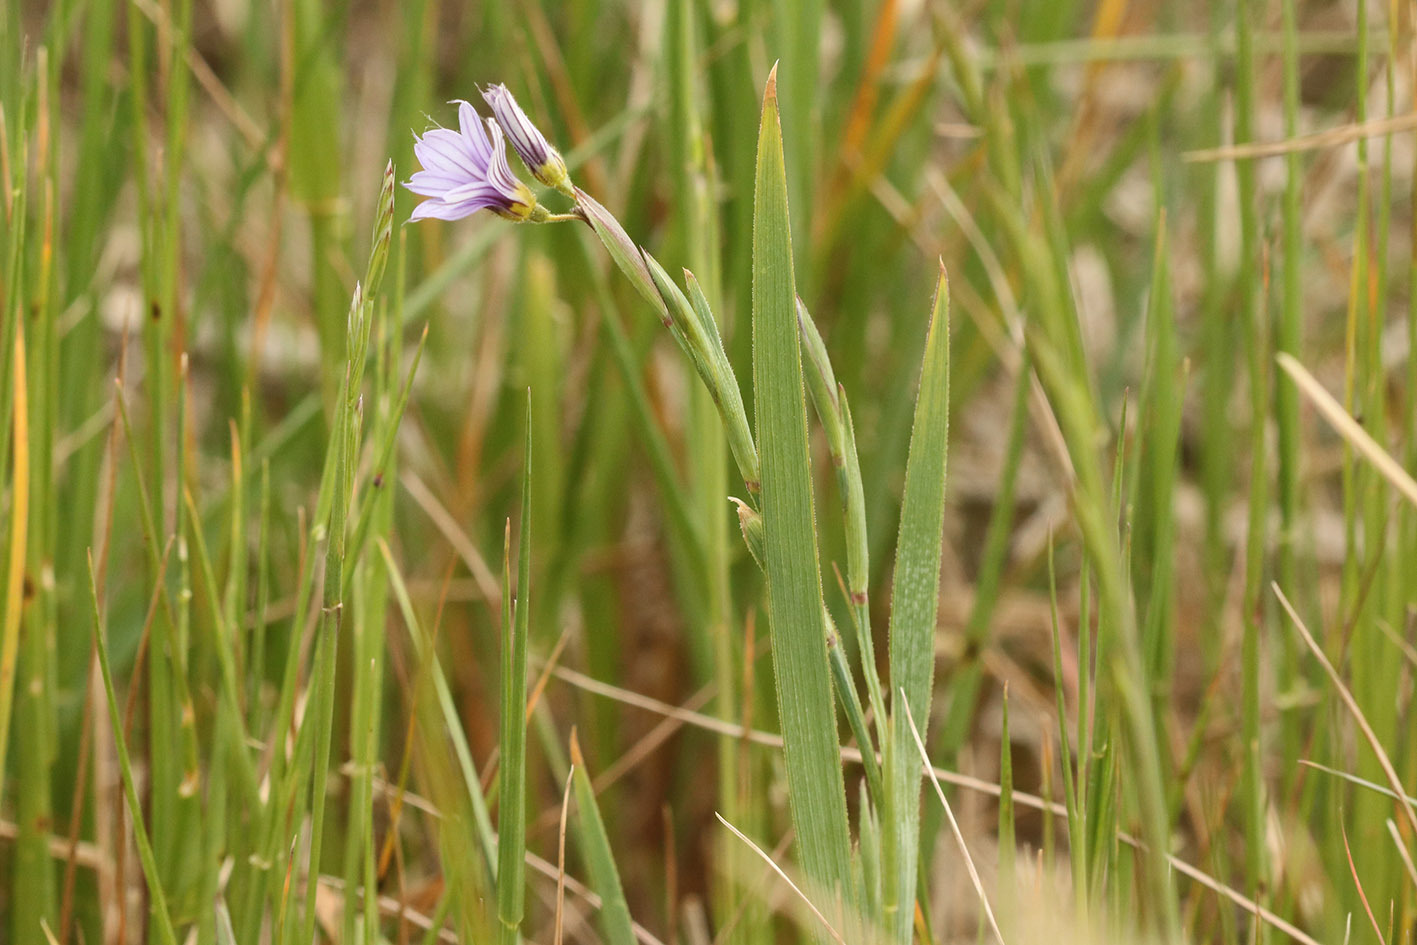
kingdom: Plantae
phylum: Tracheophyta
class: Liliopsida
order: Asparagales
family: Iridaceae
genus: Sisyrinchium
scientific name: Sisyrinchium platense
